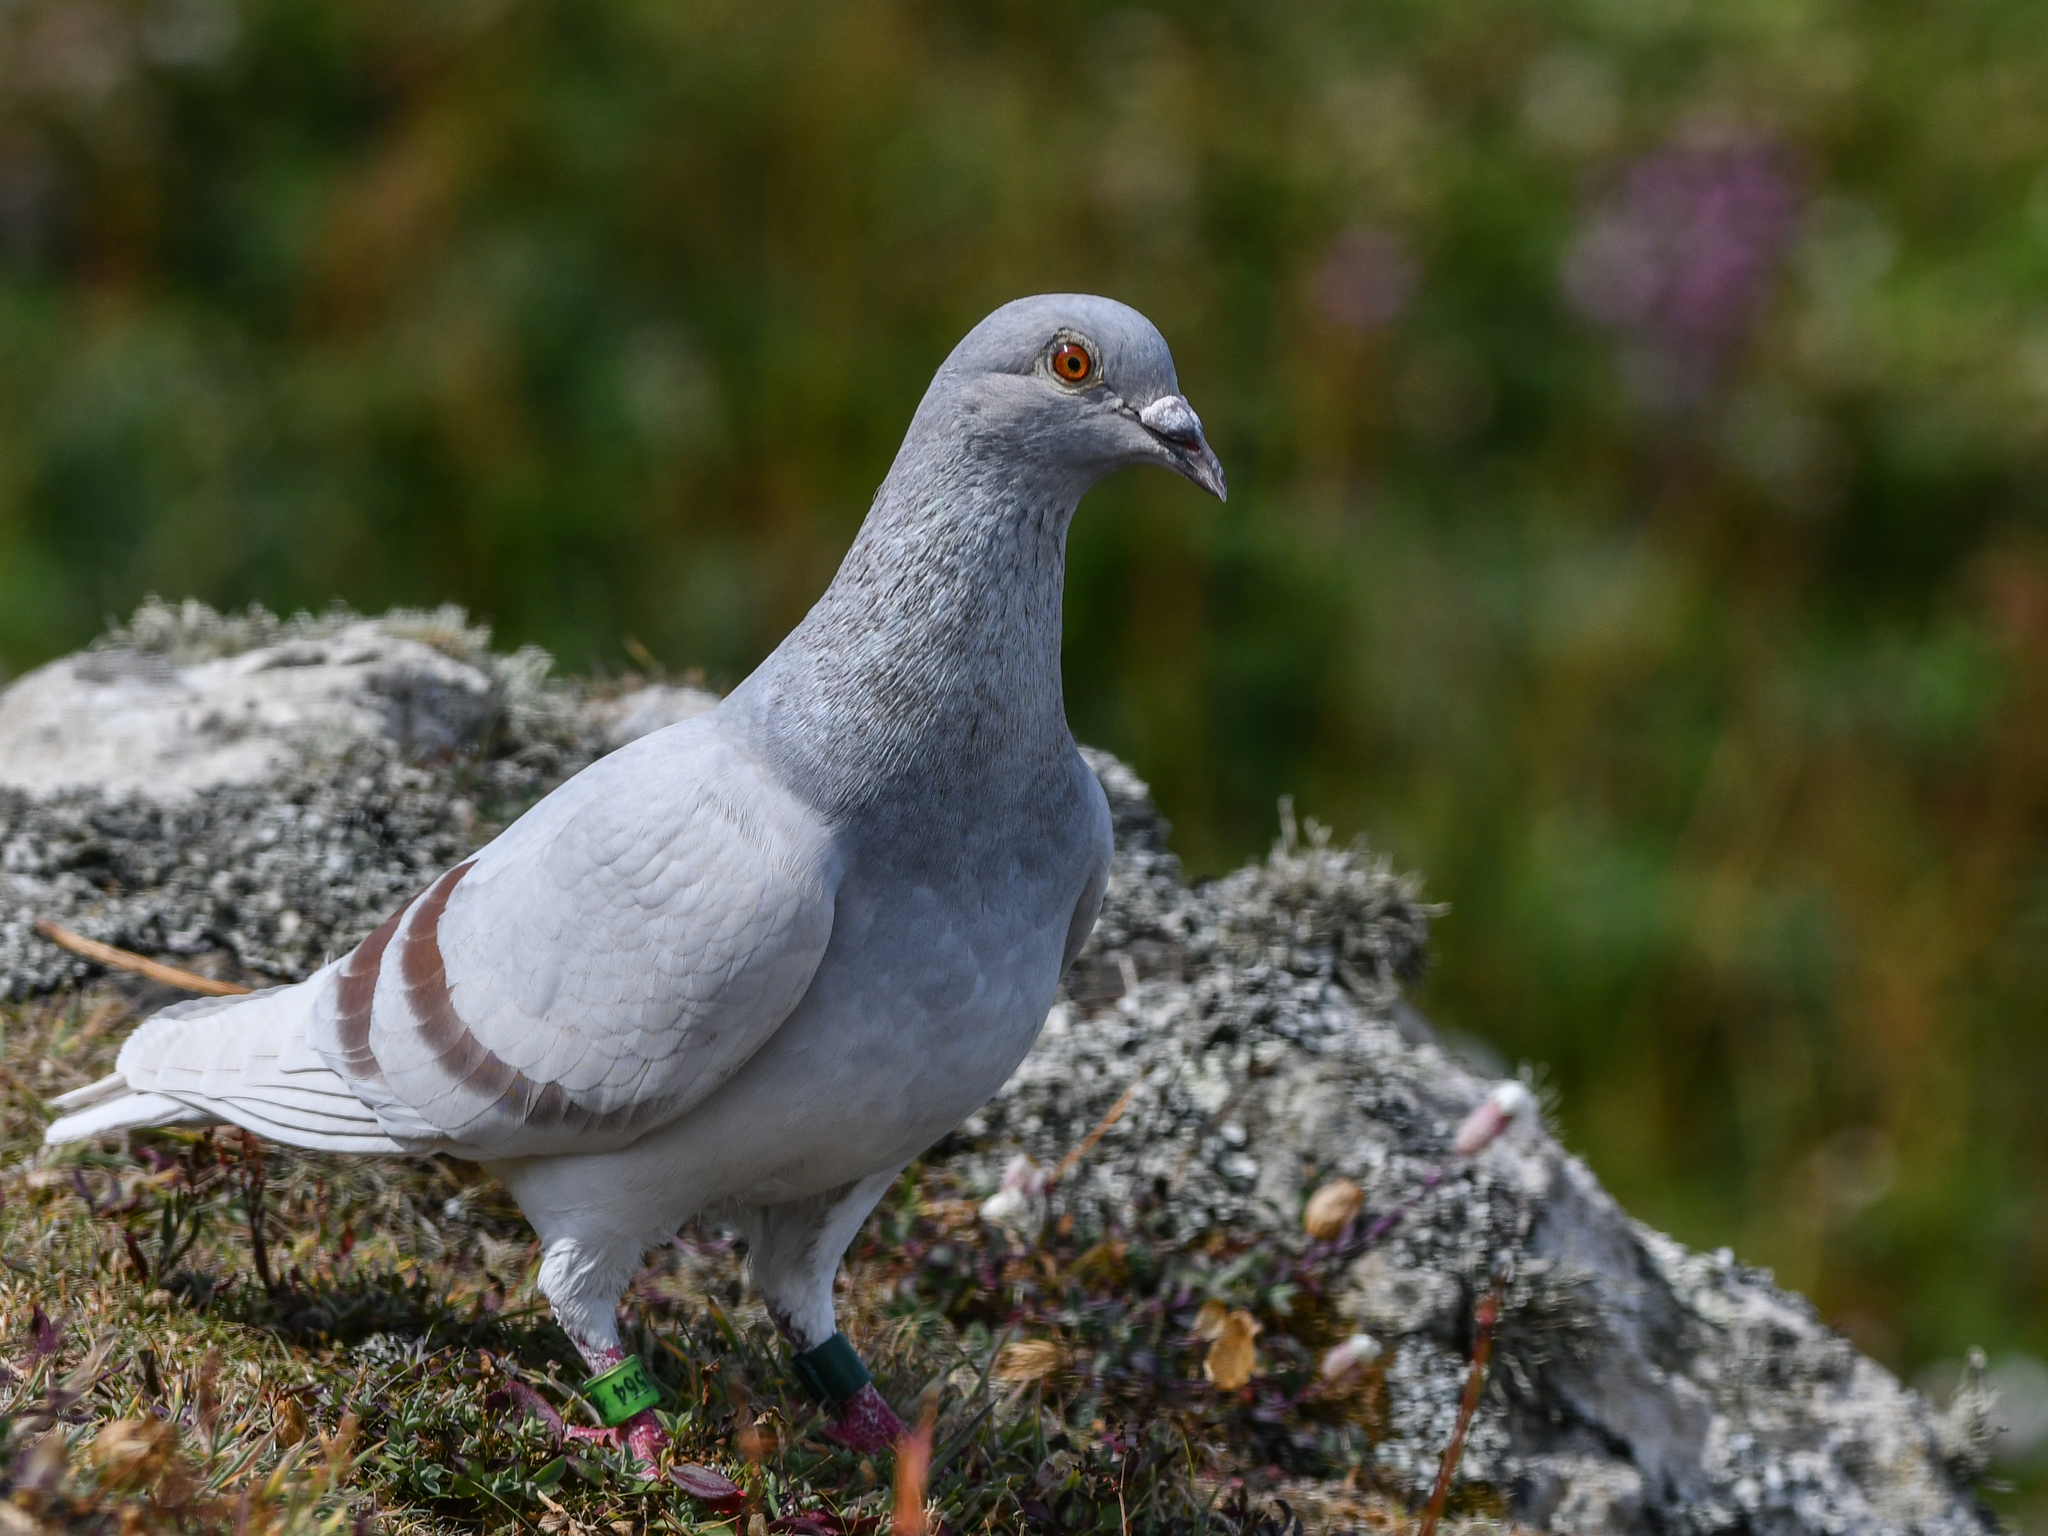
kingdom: Animalia
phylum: Chordata
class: Aves
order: Columbiformes
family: Columbidae
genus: Columba
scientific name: Columba livia
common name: Rock pigeon
